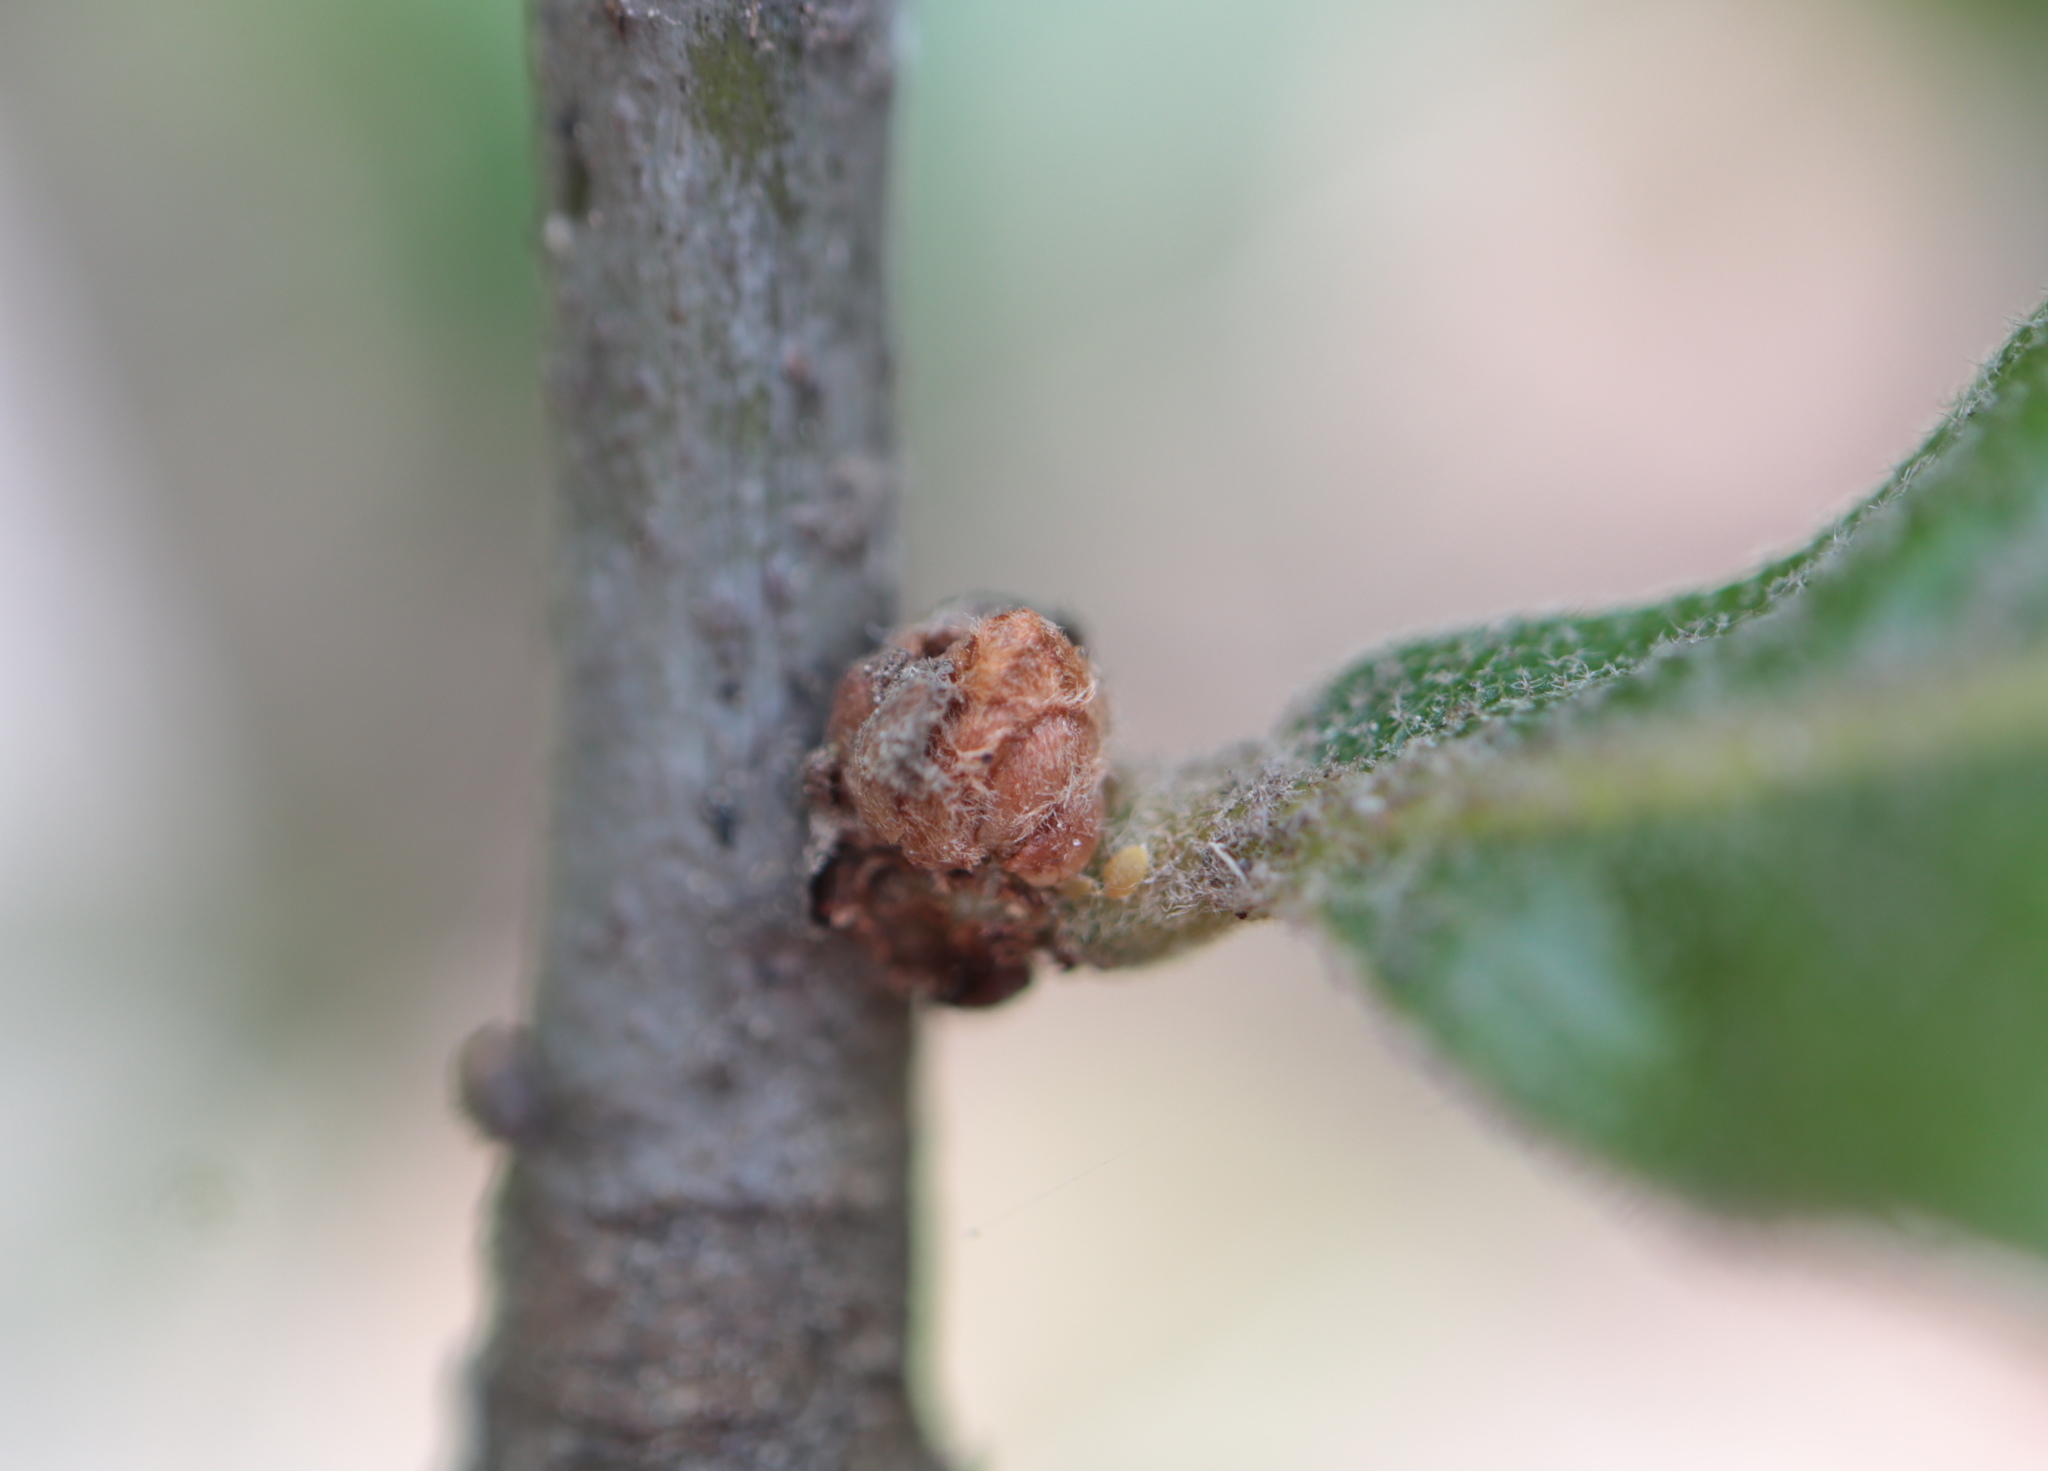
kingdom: Plantae
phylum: Tracheophyta
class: Magnoliopsida
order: Fagales
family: Fagaceae
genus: Quercus
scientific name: Quercus marilandica
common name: Blackjack oak
